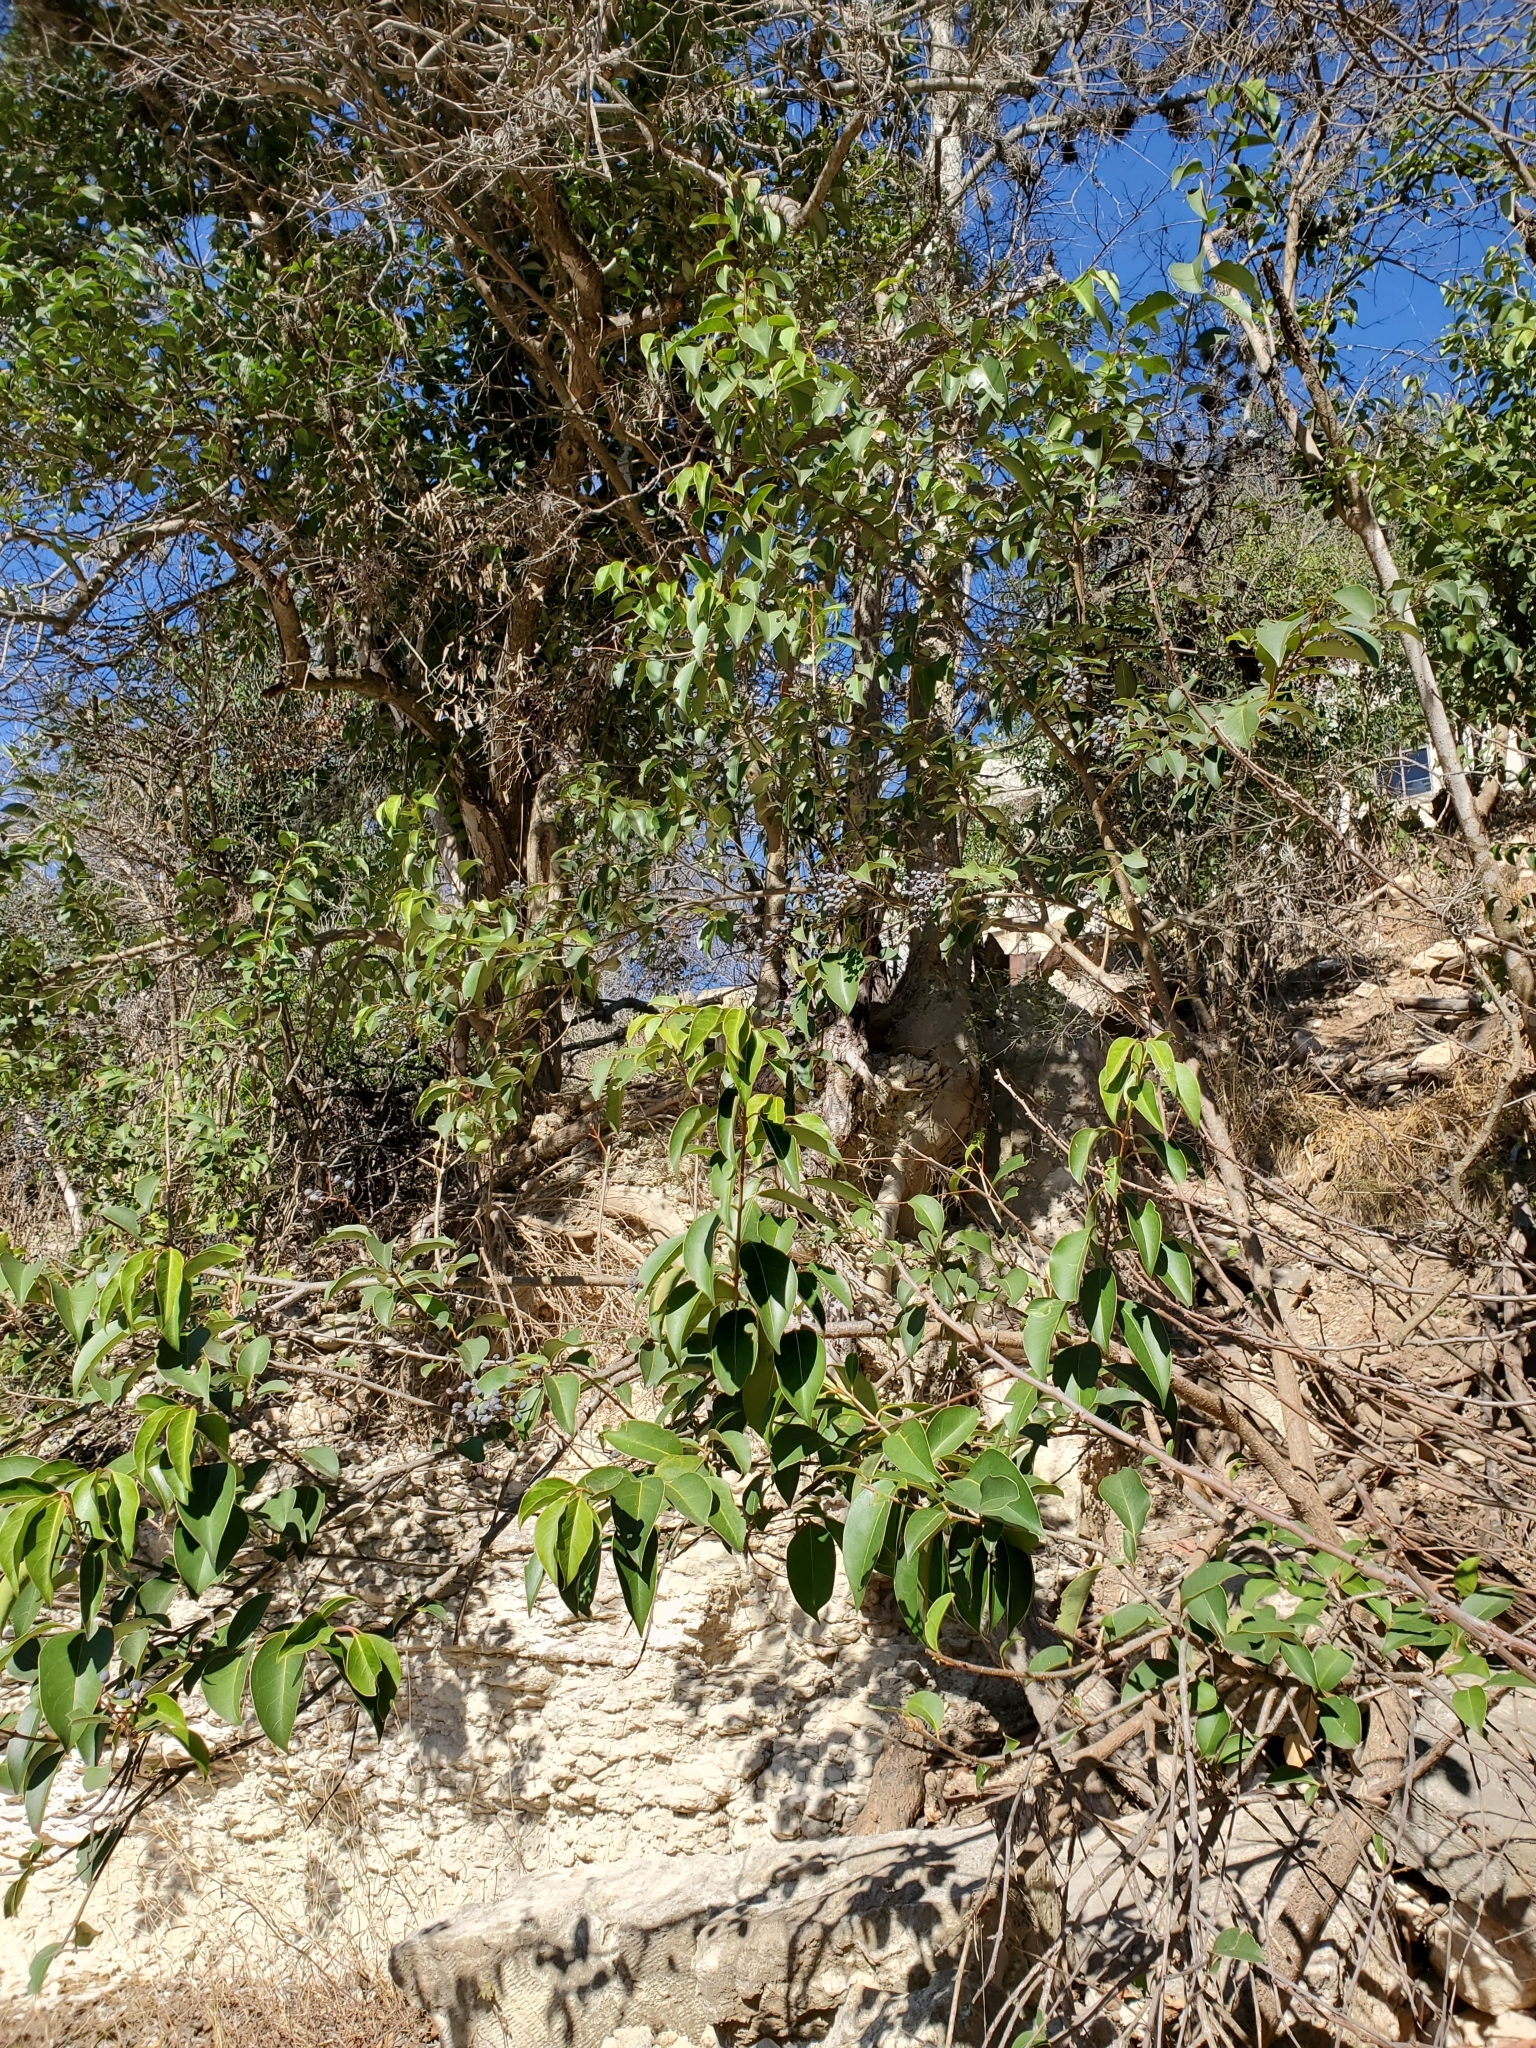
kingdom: Plantae
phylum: Tracheophyta
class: Magnoliopsida
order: Lamiales
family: Oleaceae
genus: Ligustrum
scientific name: Ligustrum lucidum
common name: Glossy privet
